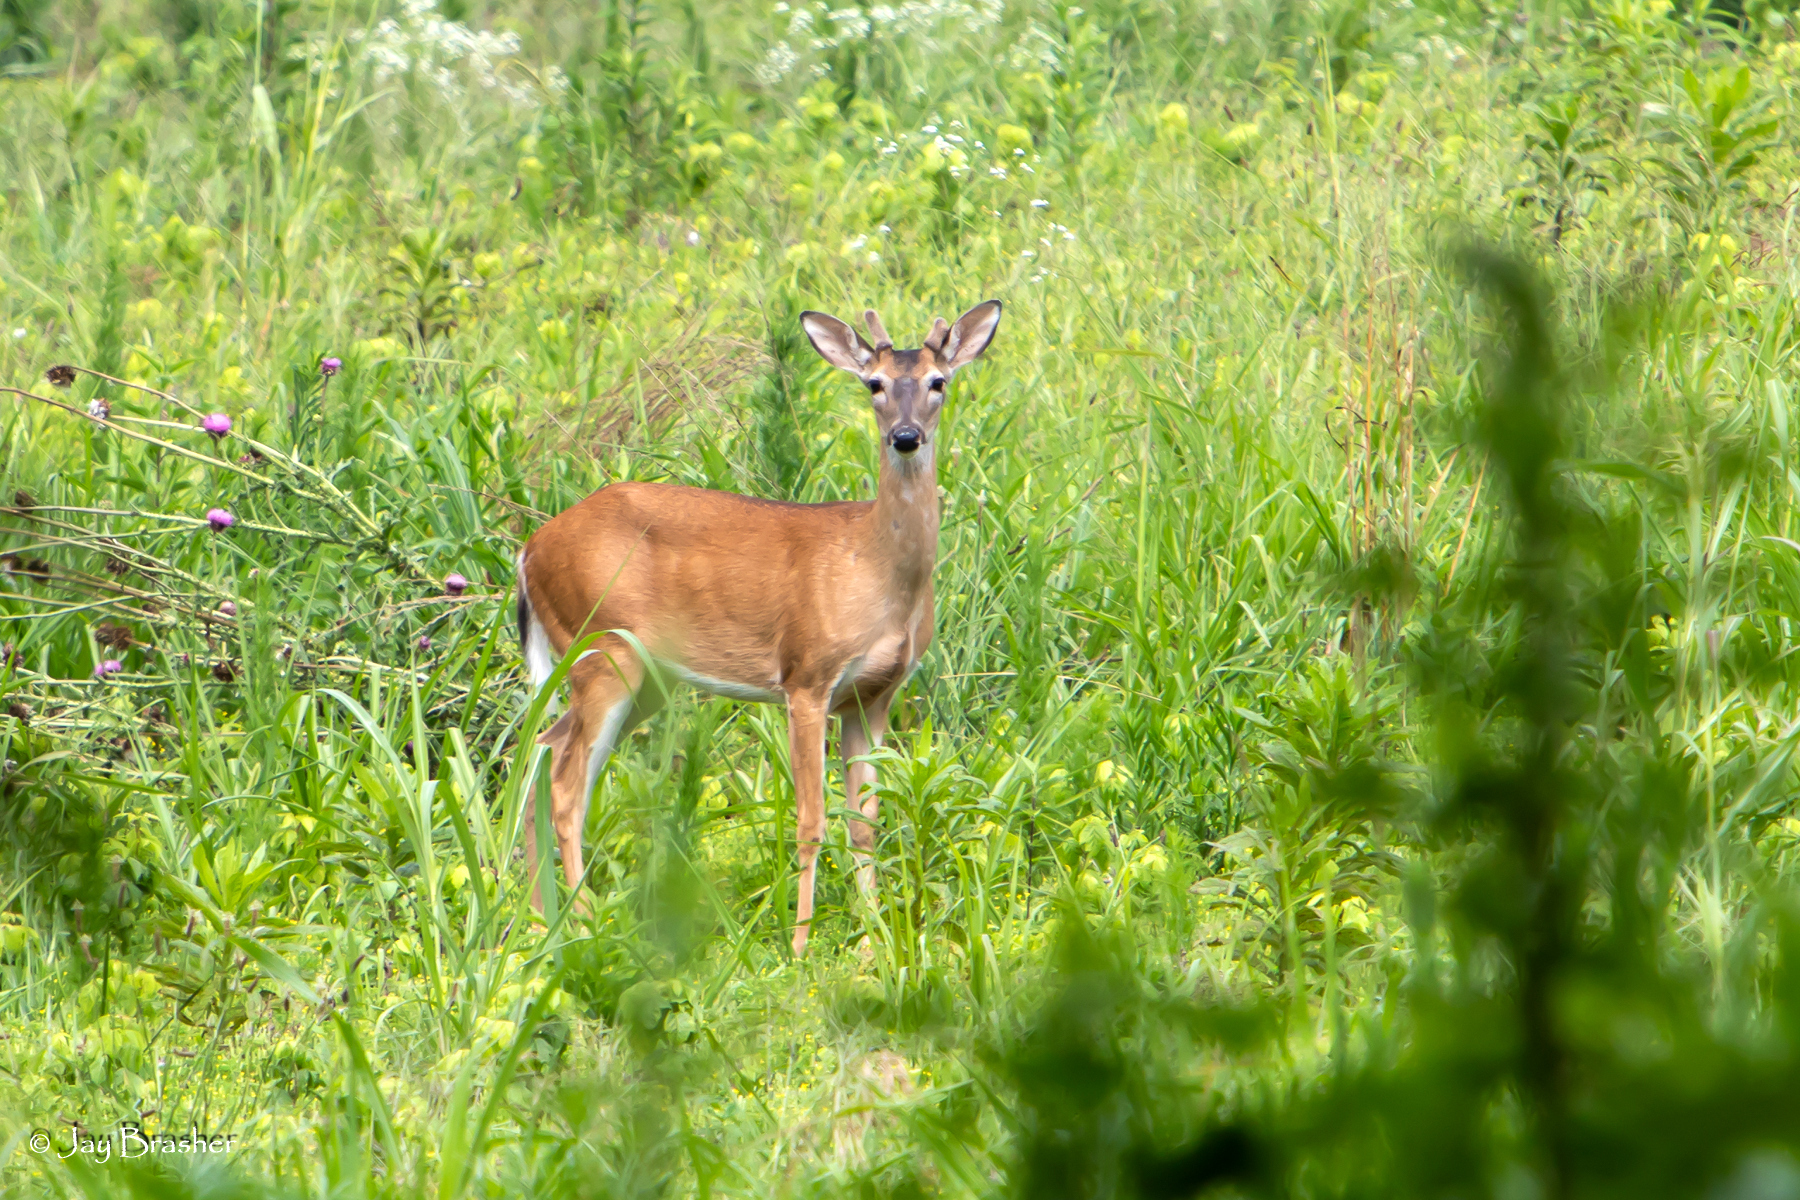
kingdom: Animalia
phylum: Chordata
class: Mammalia
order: Artiodactyla
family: Cervidae
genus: Odocoileus
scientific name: Odocoileus virginianus
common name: White-tailed deer
